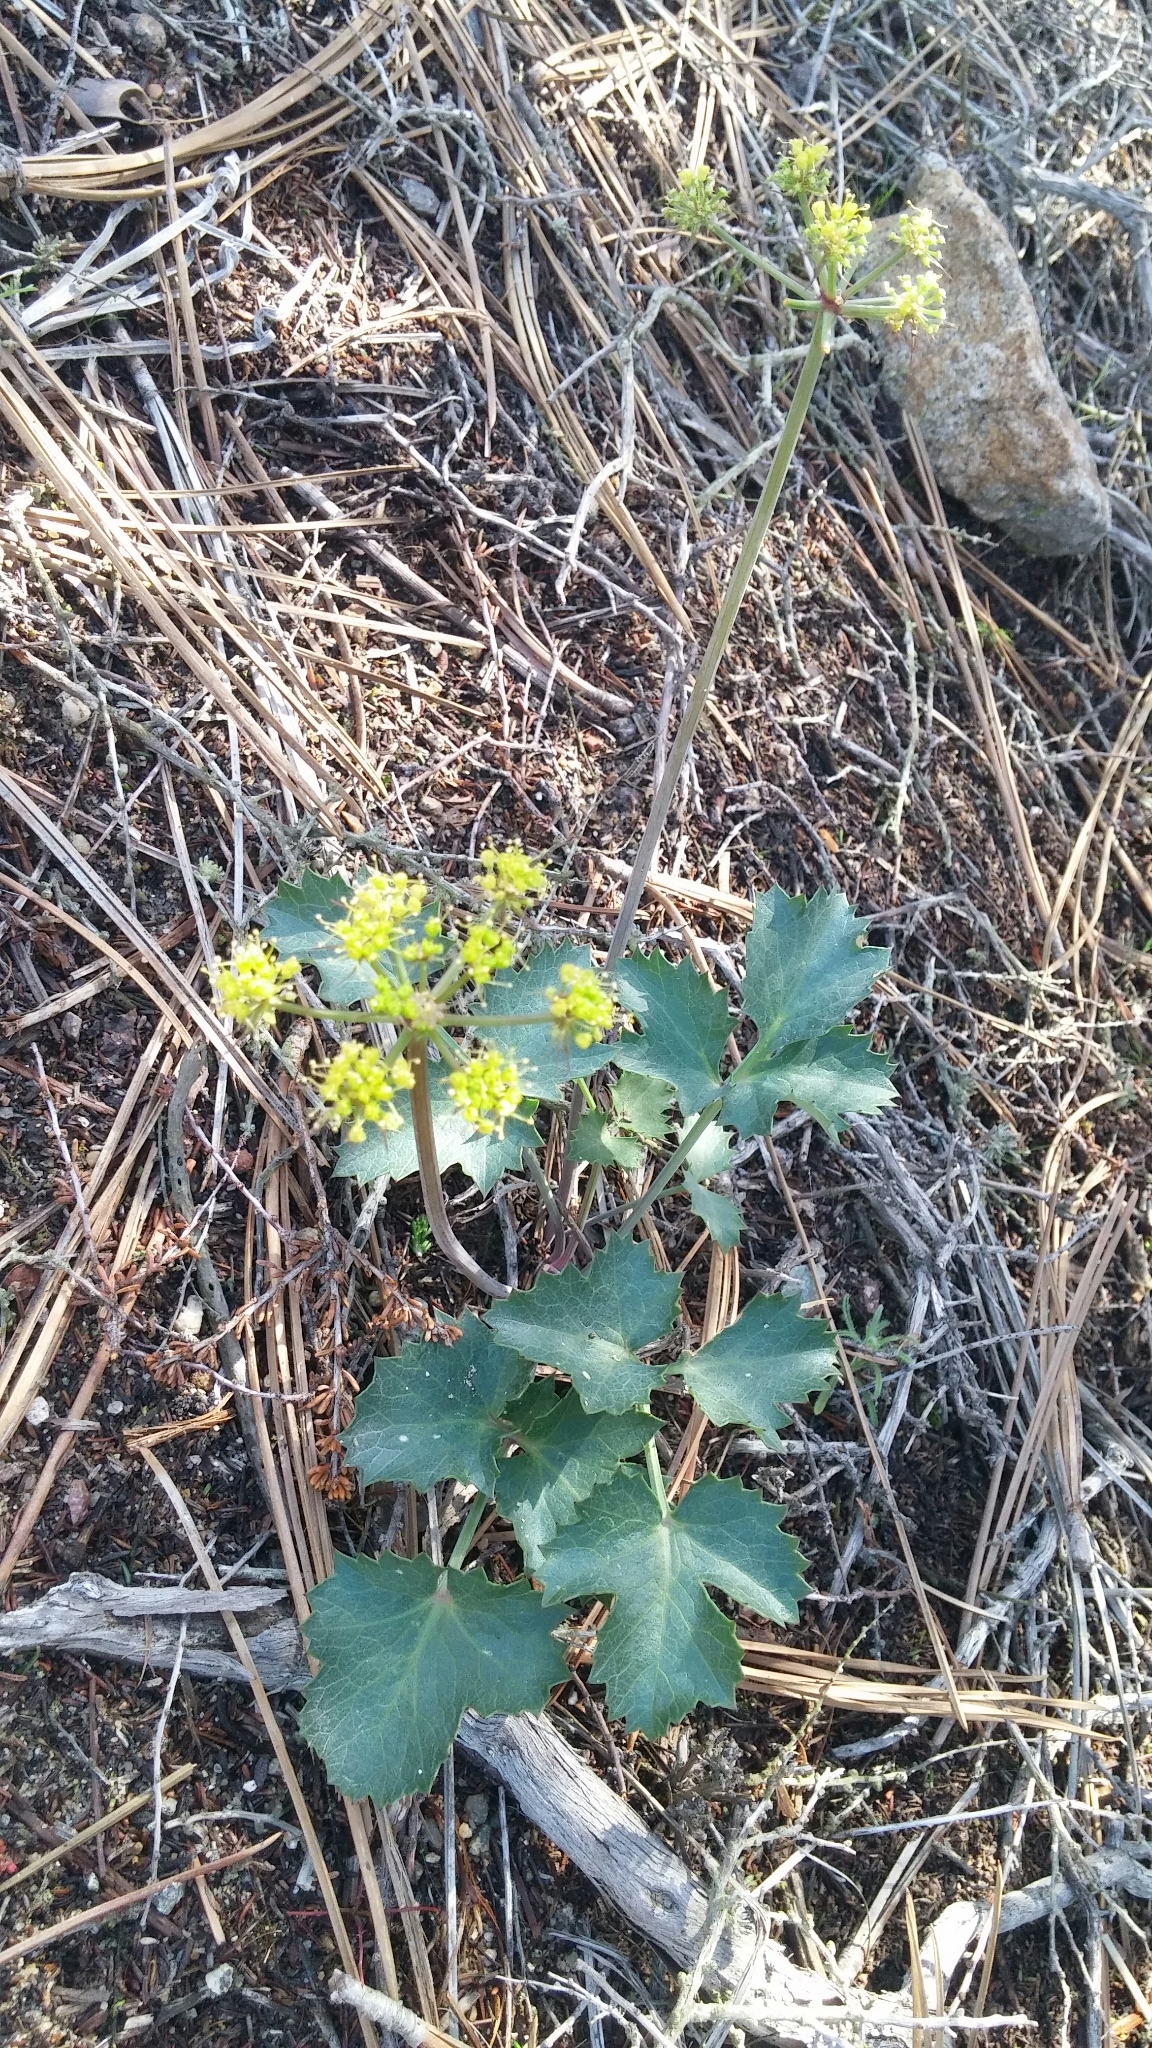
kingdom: Plantae
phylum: Tracheophyta
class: Magnoliopsida
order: Apiales
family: Apiaceae
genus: Lomatium
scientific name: Lomatium lucidum
